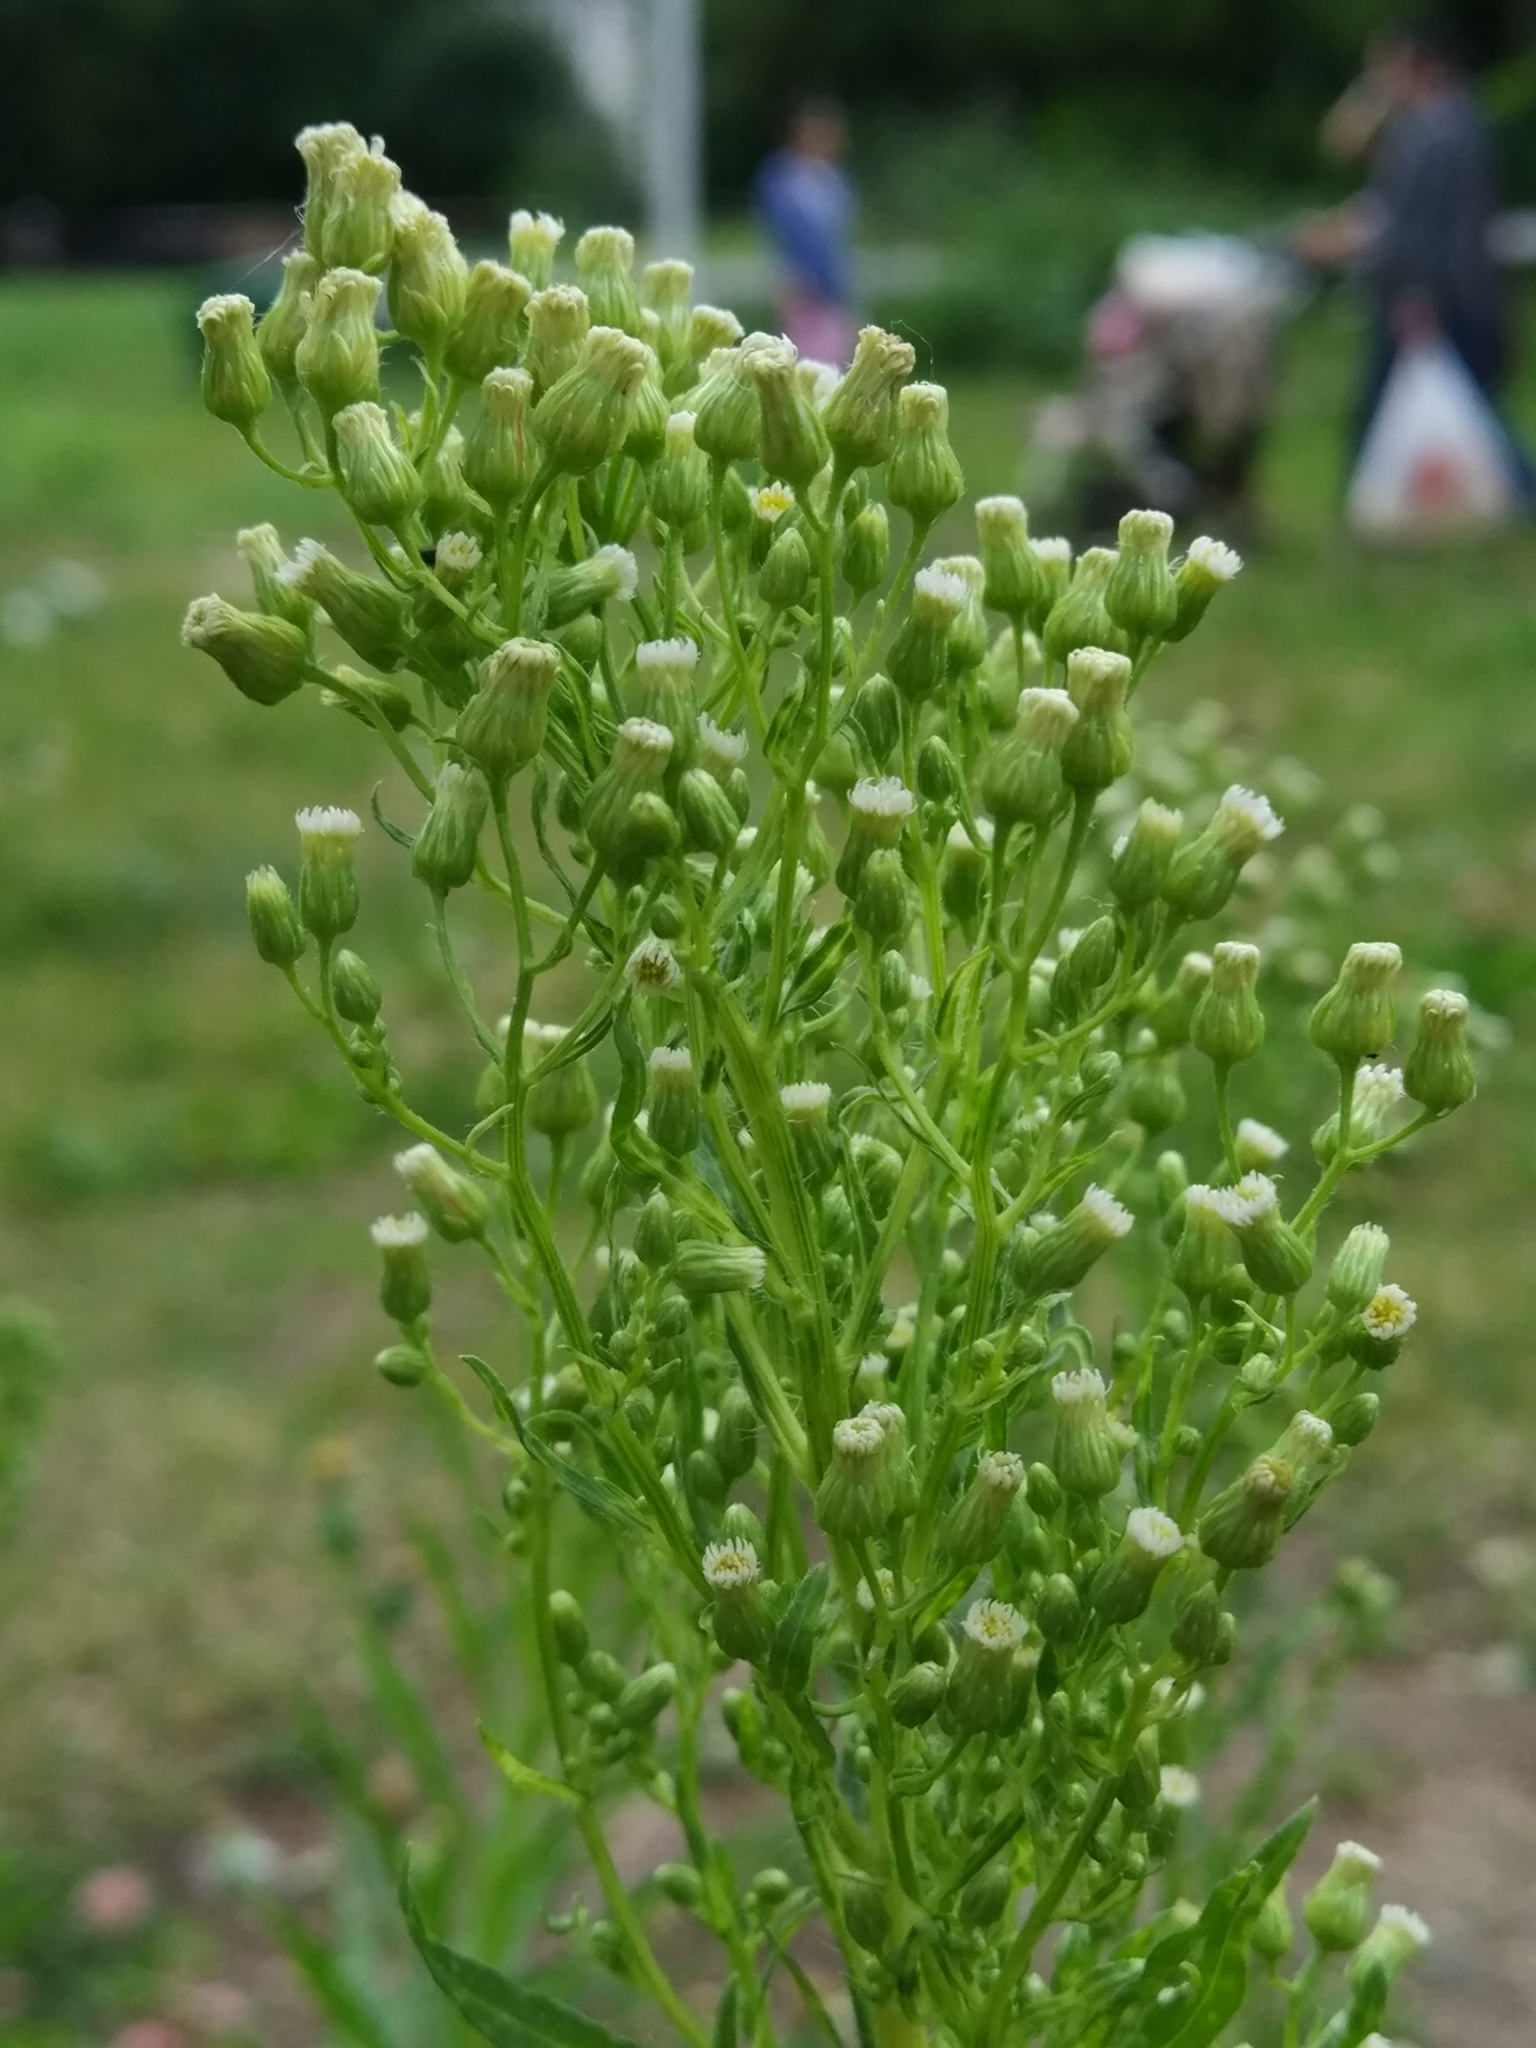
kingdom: Plantae
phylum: Tracheophyta
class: Magnoliopsida
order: Asterales
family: Asteraceae
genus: Erigeron
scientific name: Erigeron canadensis
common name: Canadian fleabane
